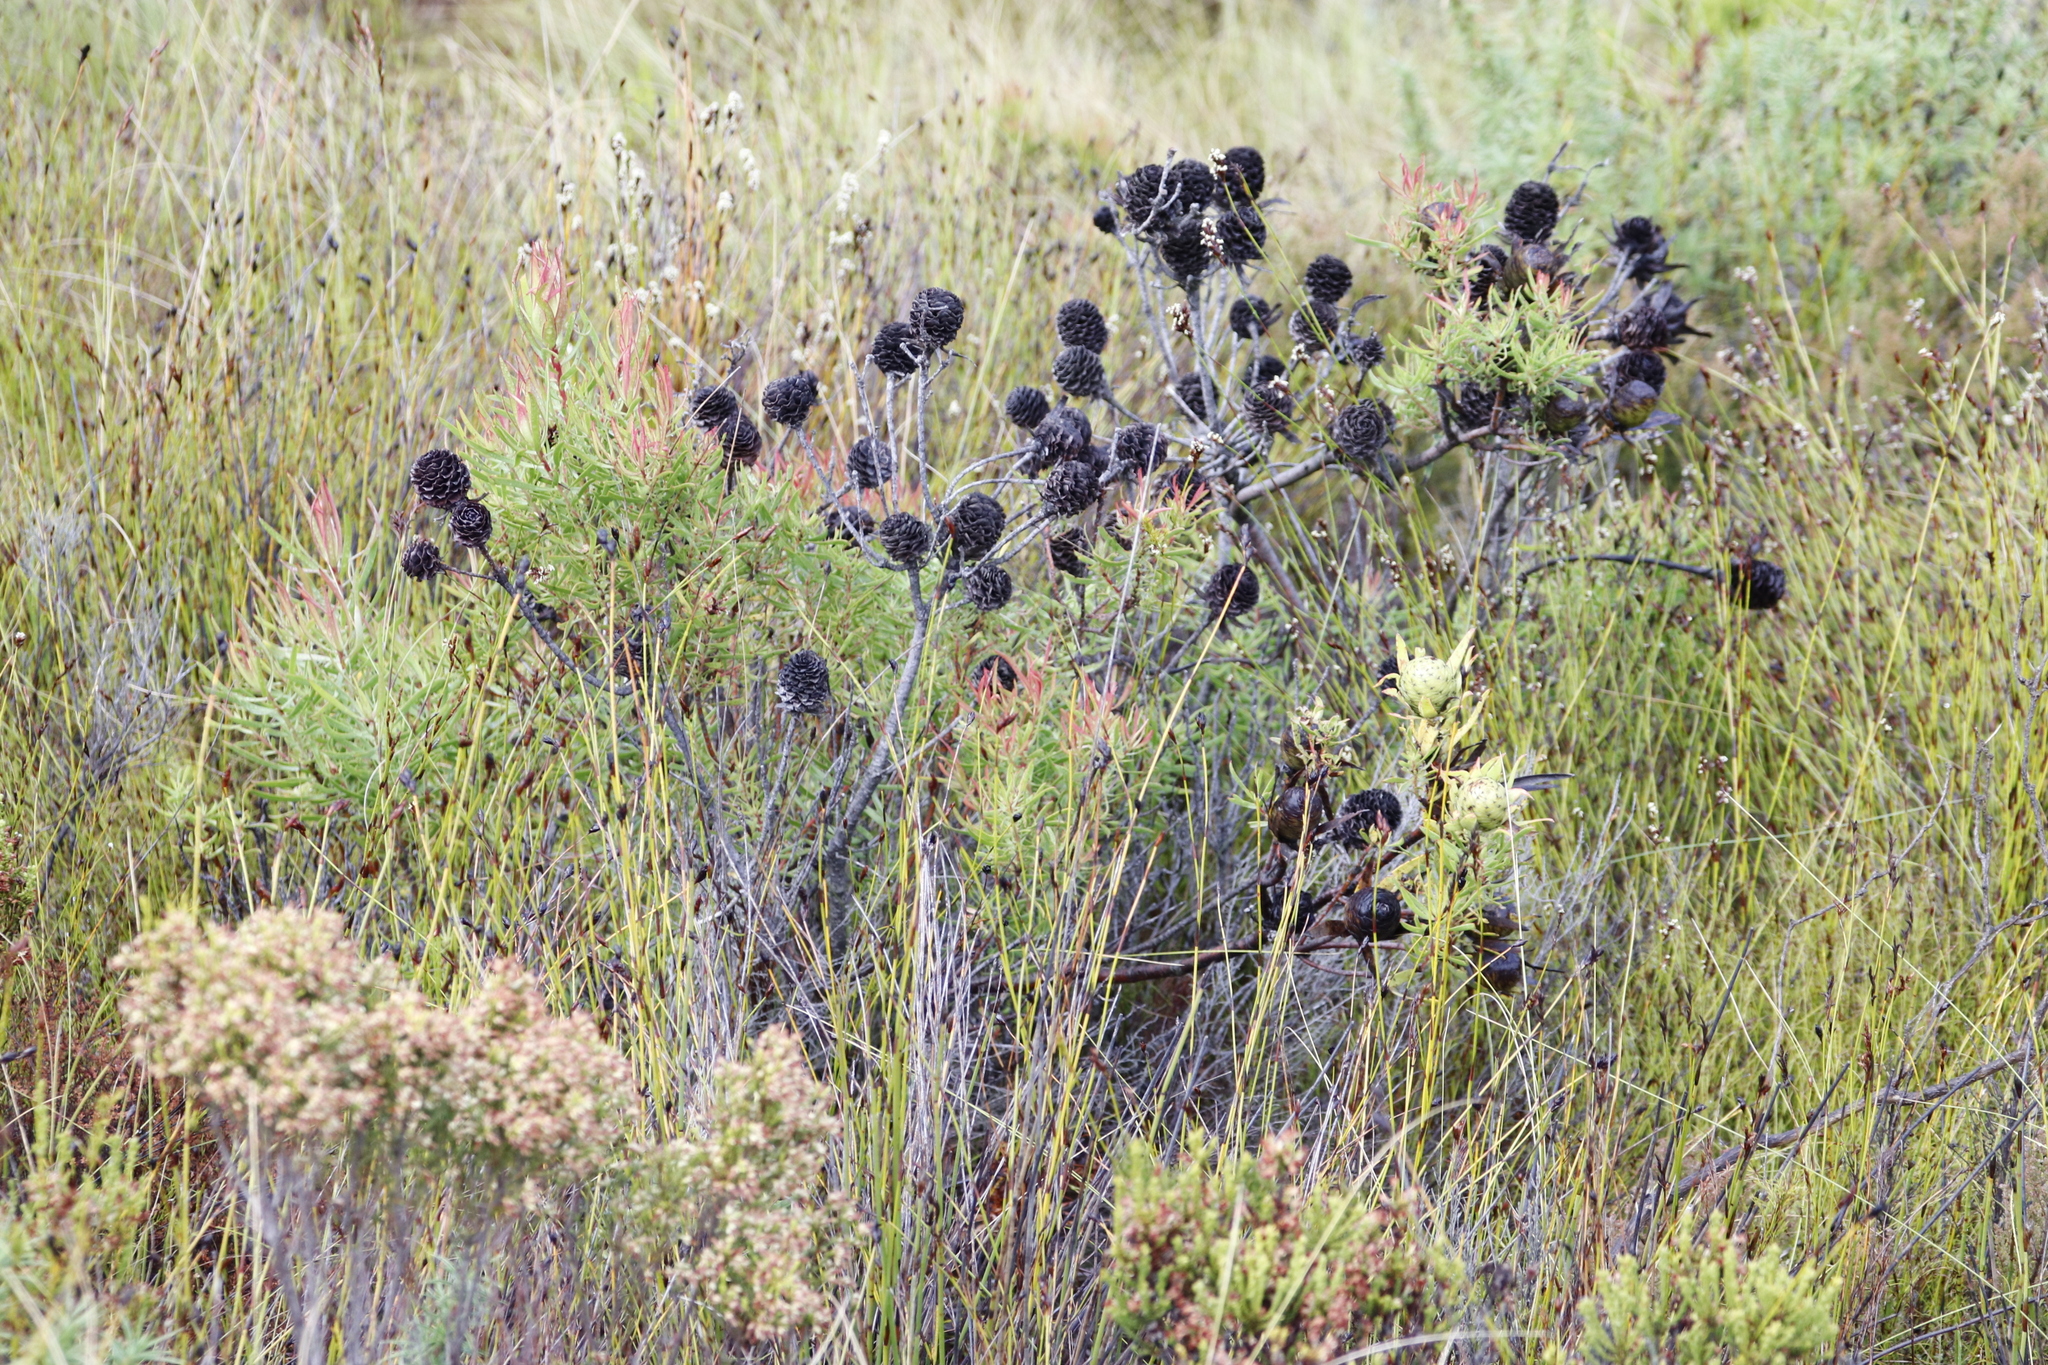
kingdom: Plantae
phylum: Tracheophyta
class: Magnoliopsida
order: Proteales
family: Proteaceae
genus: Leucadendron
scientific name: Leucadendron spissifolium
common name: Spear-leaf conebush
